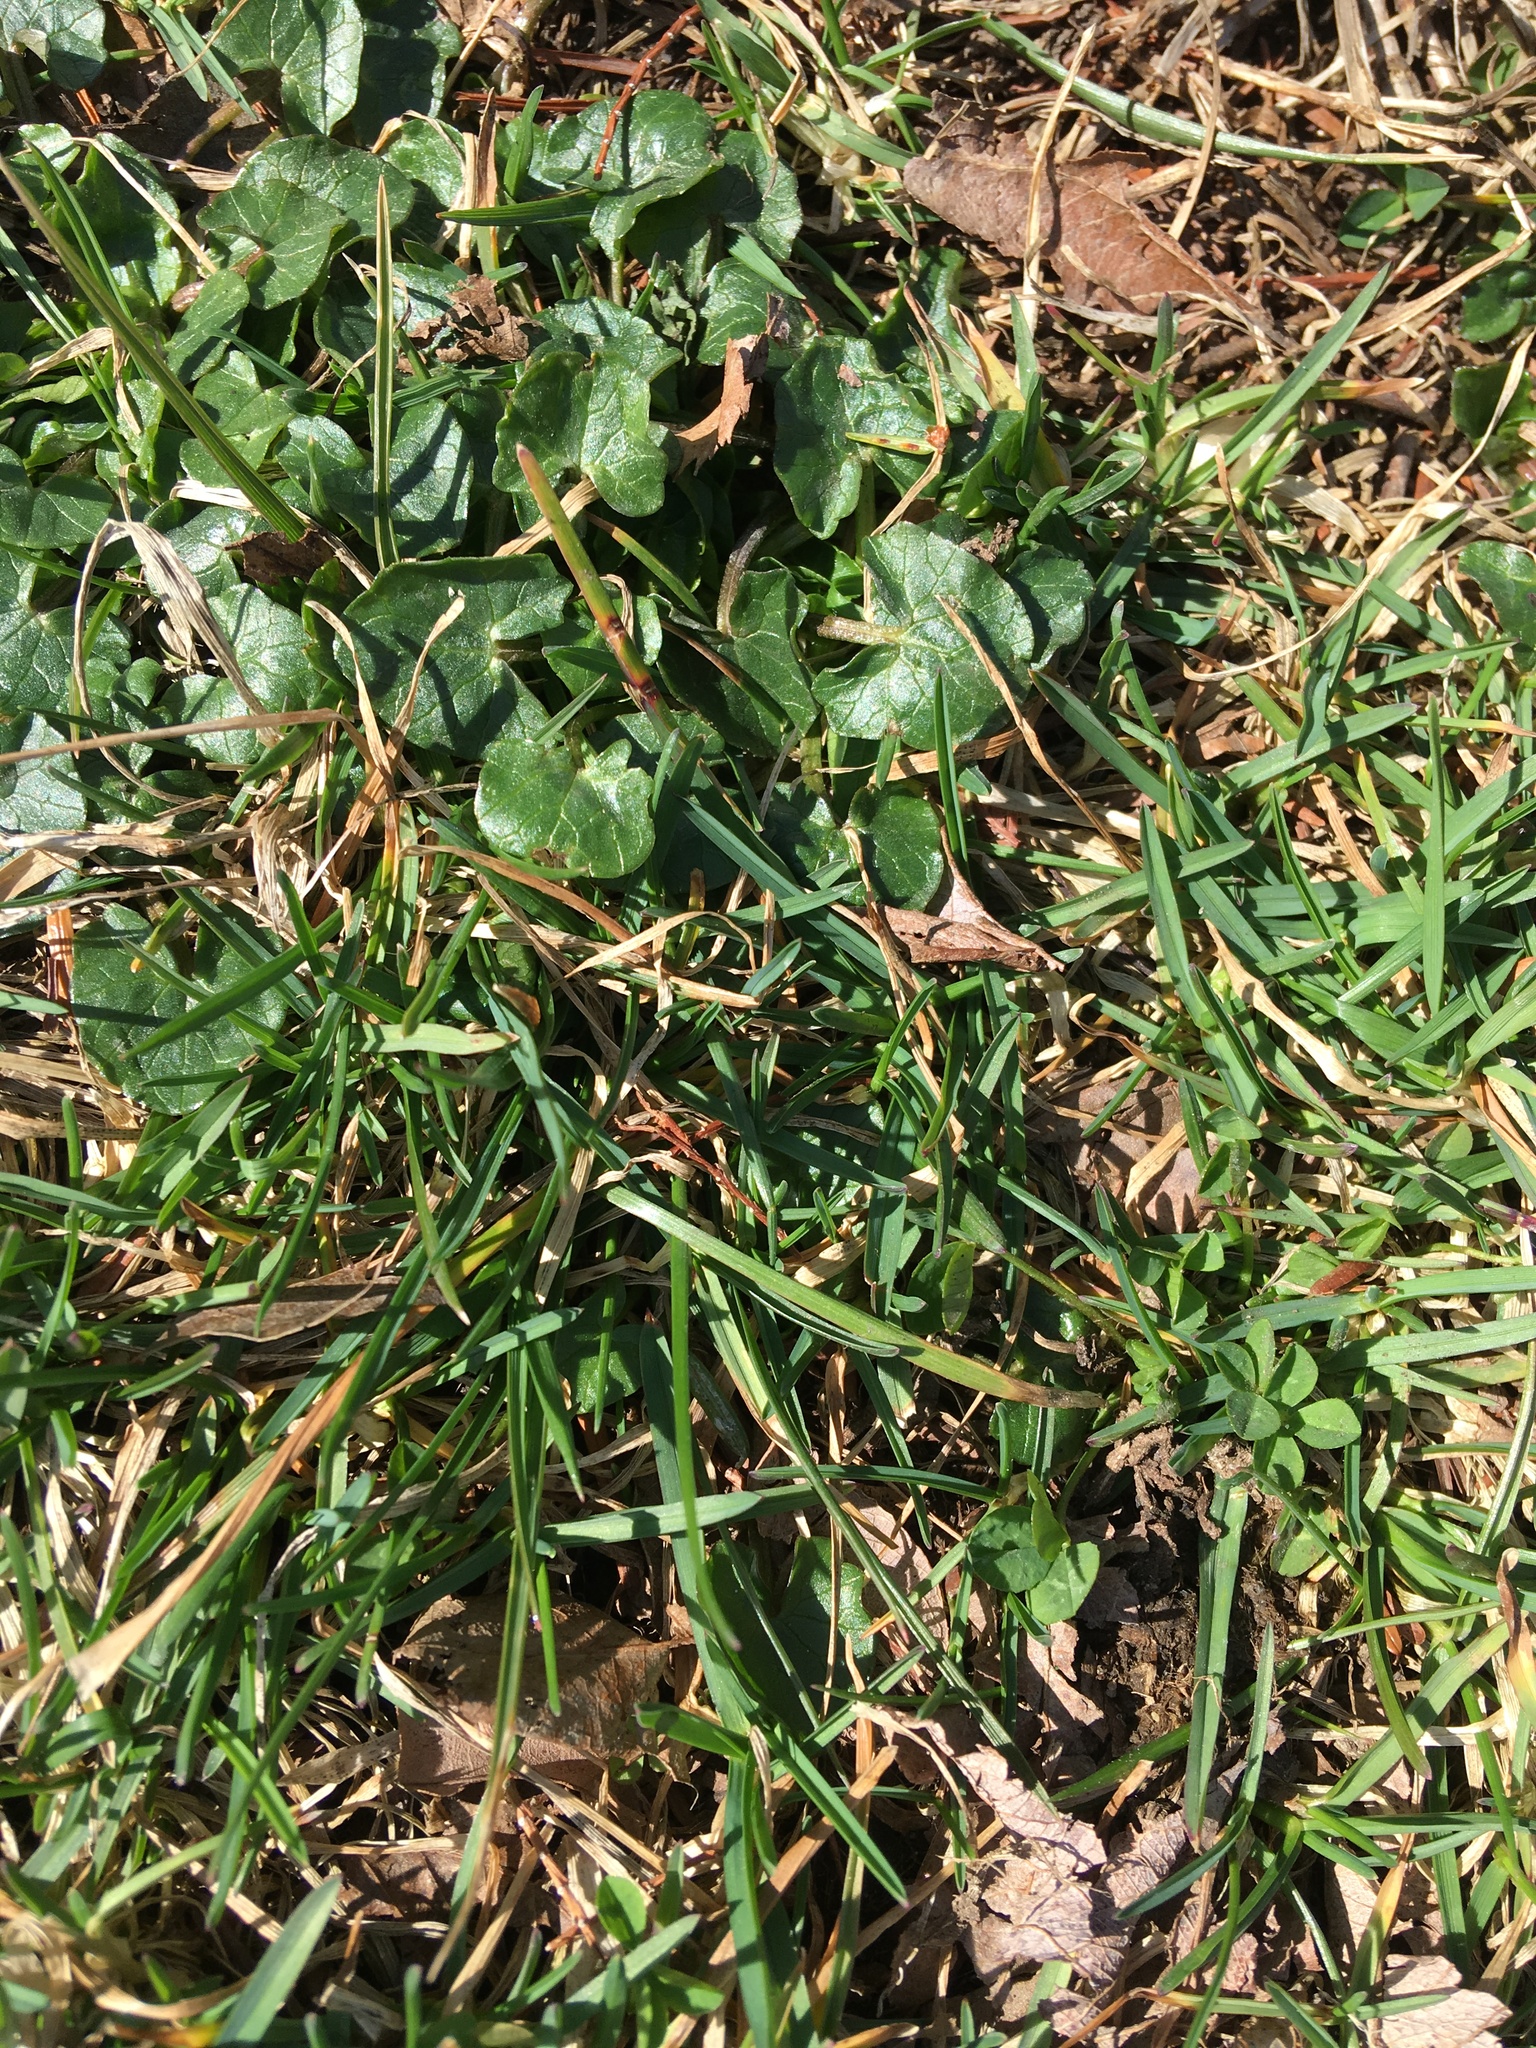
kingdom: Plantae
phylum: Tracheophyta
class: Magnoliopsida
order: Ranunculales
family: Ranunculaceae
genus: Ficaria
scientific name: Ficaria verna
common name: Lesser celandine
